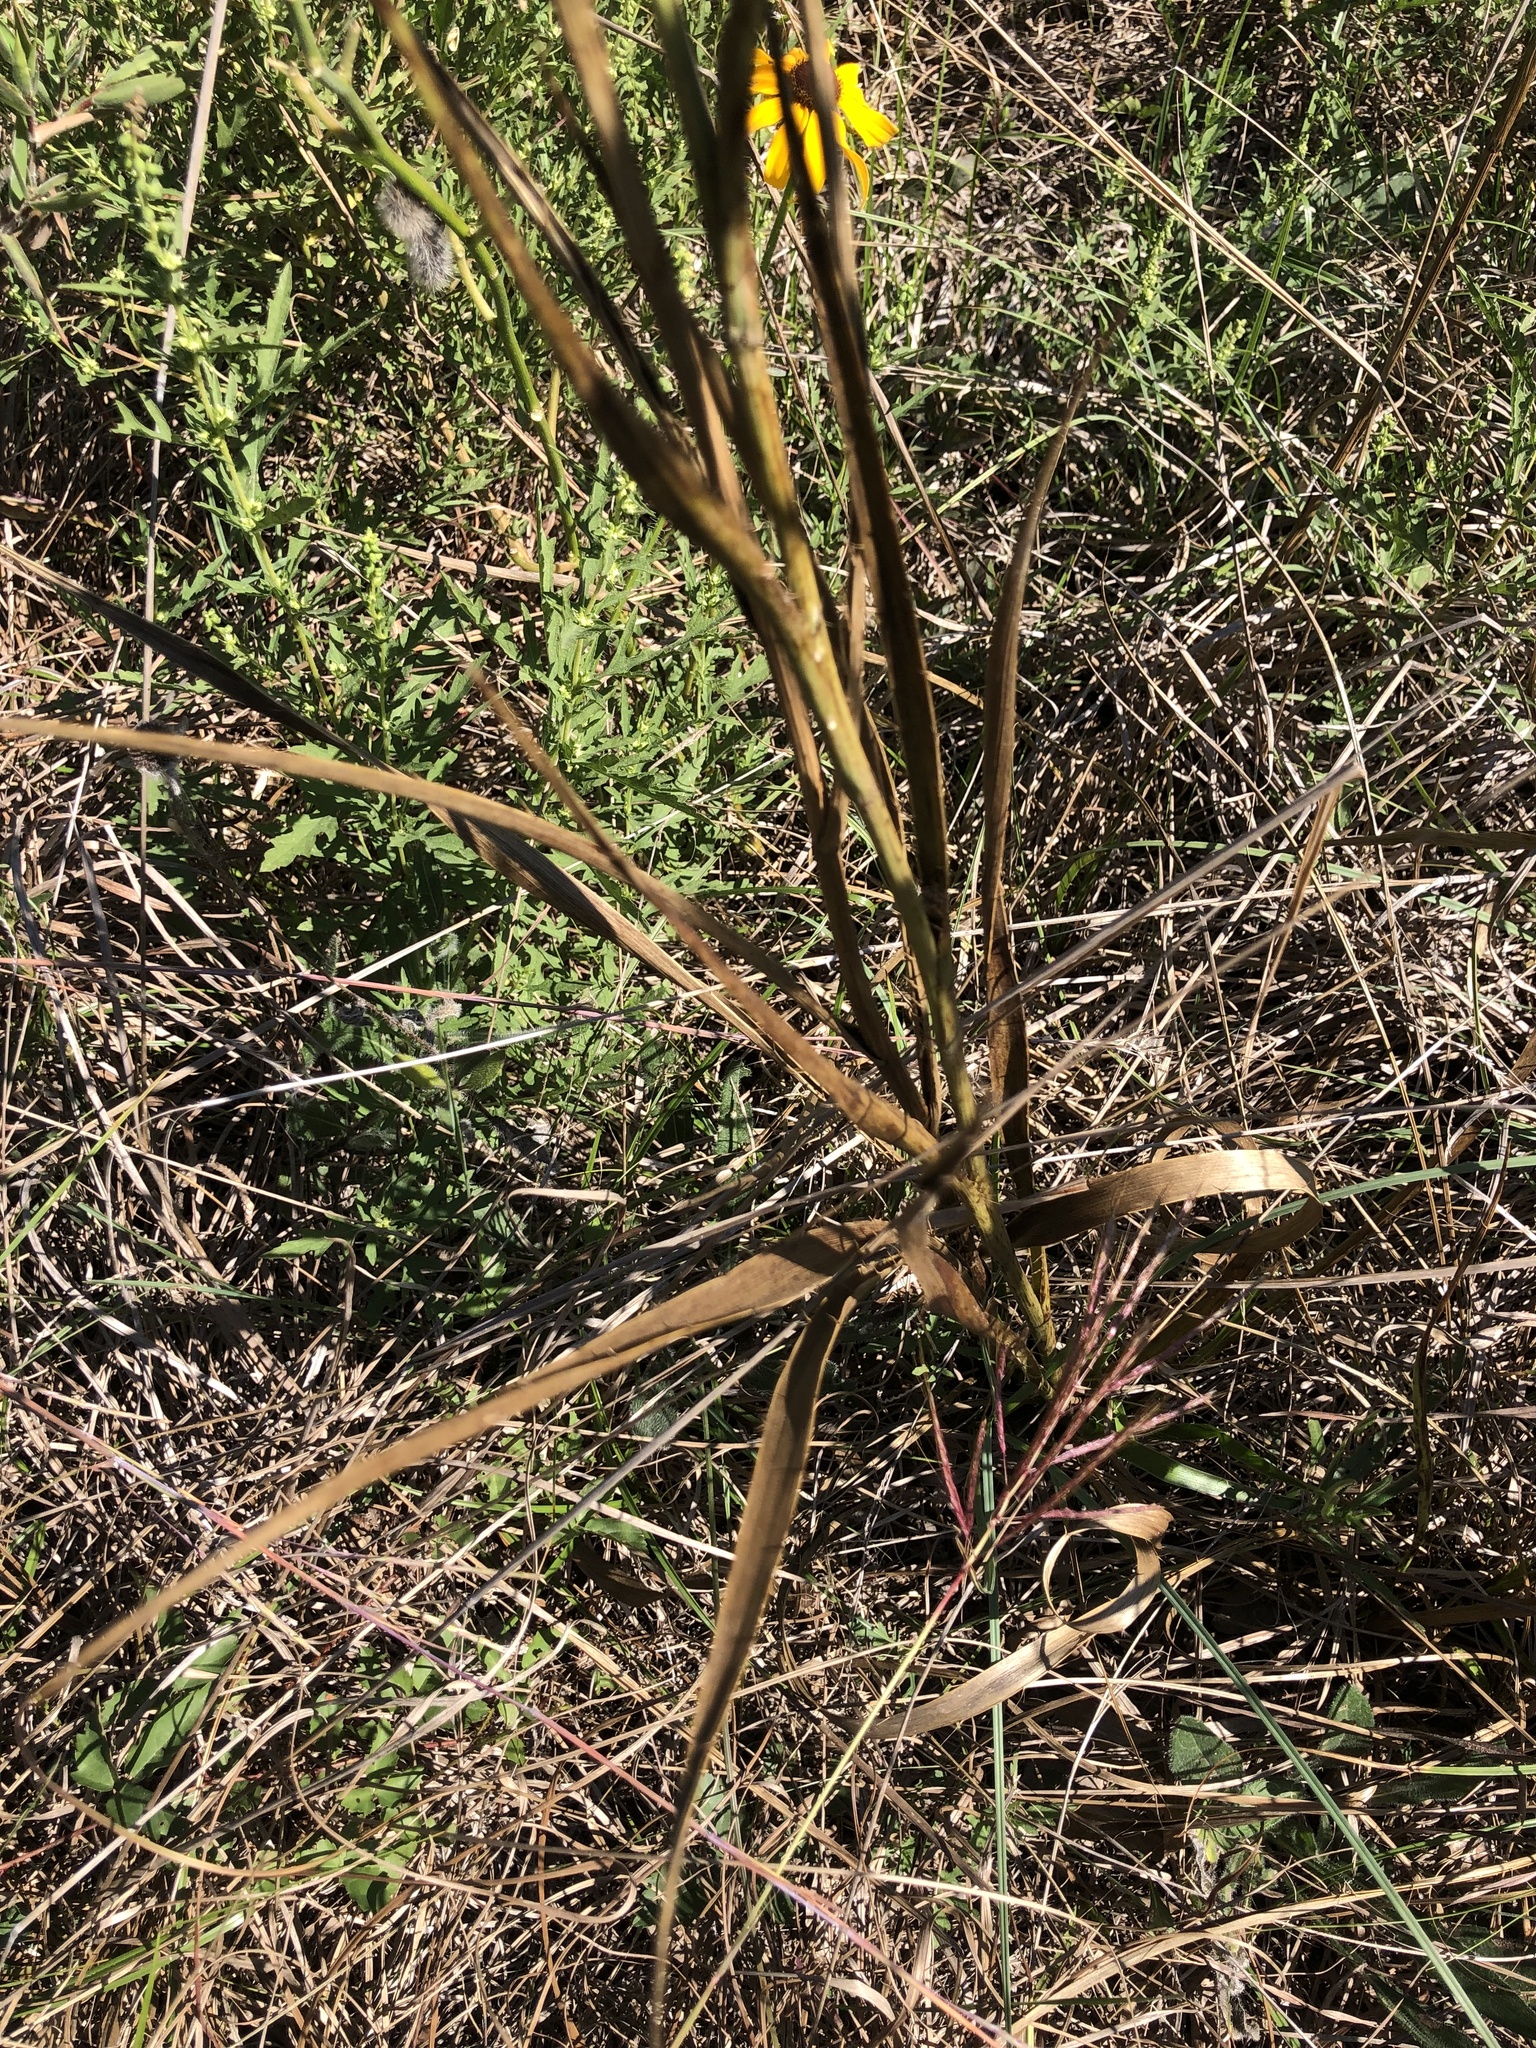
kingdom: Plantae
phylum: Tracheophyta
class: Magnoliopsida
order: Apiales
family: Apiaceae
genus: Eryngium
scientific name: Eryngium yuccifolium
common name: Button eryngo
